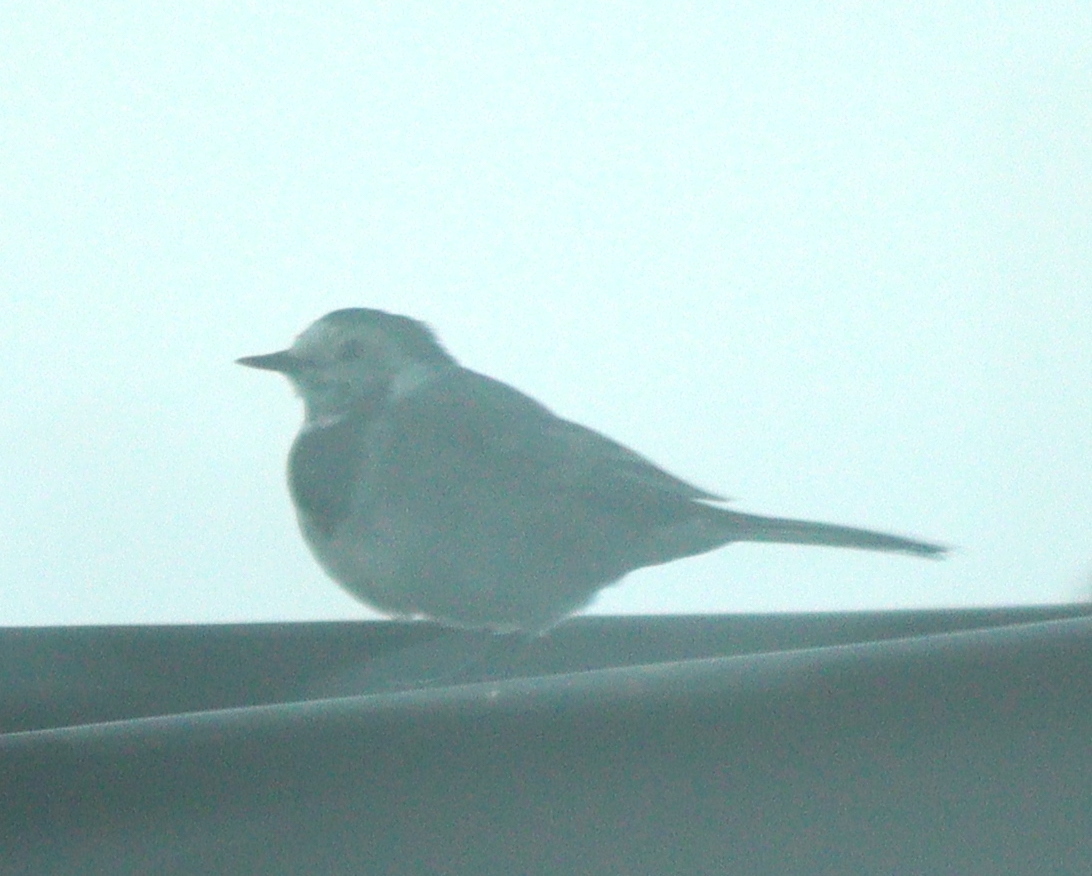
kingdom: Animalia
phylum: Chordata
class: Aves
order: Passeriformes
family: Motacillidae
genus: Motacilla
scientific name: Motacilla alba
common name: White wagtail
